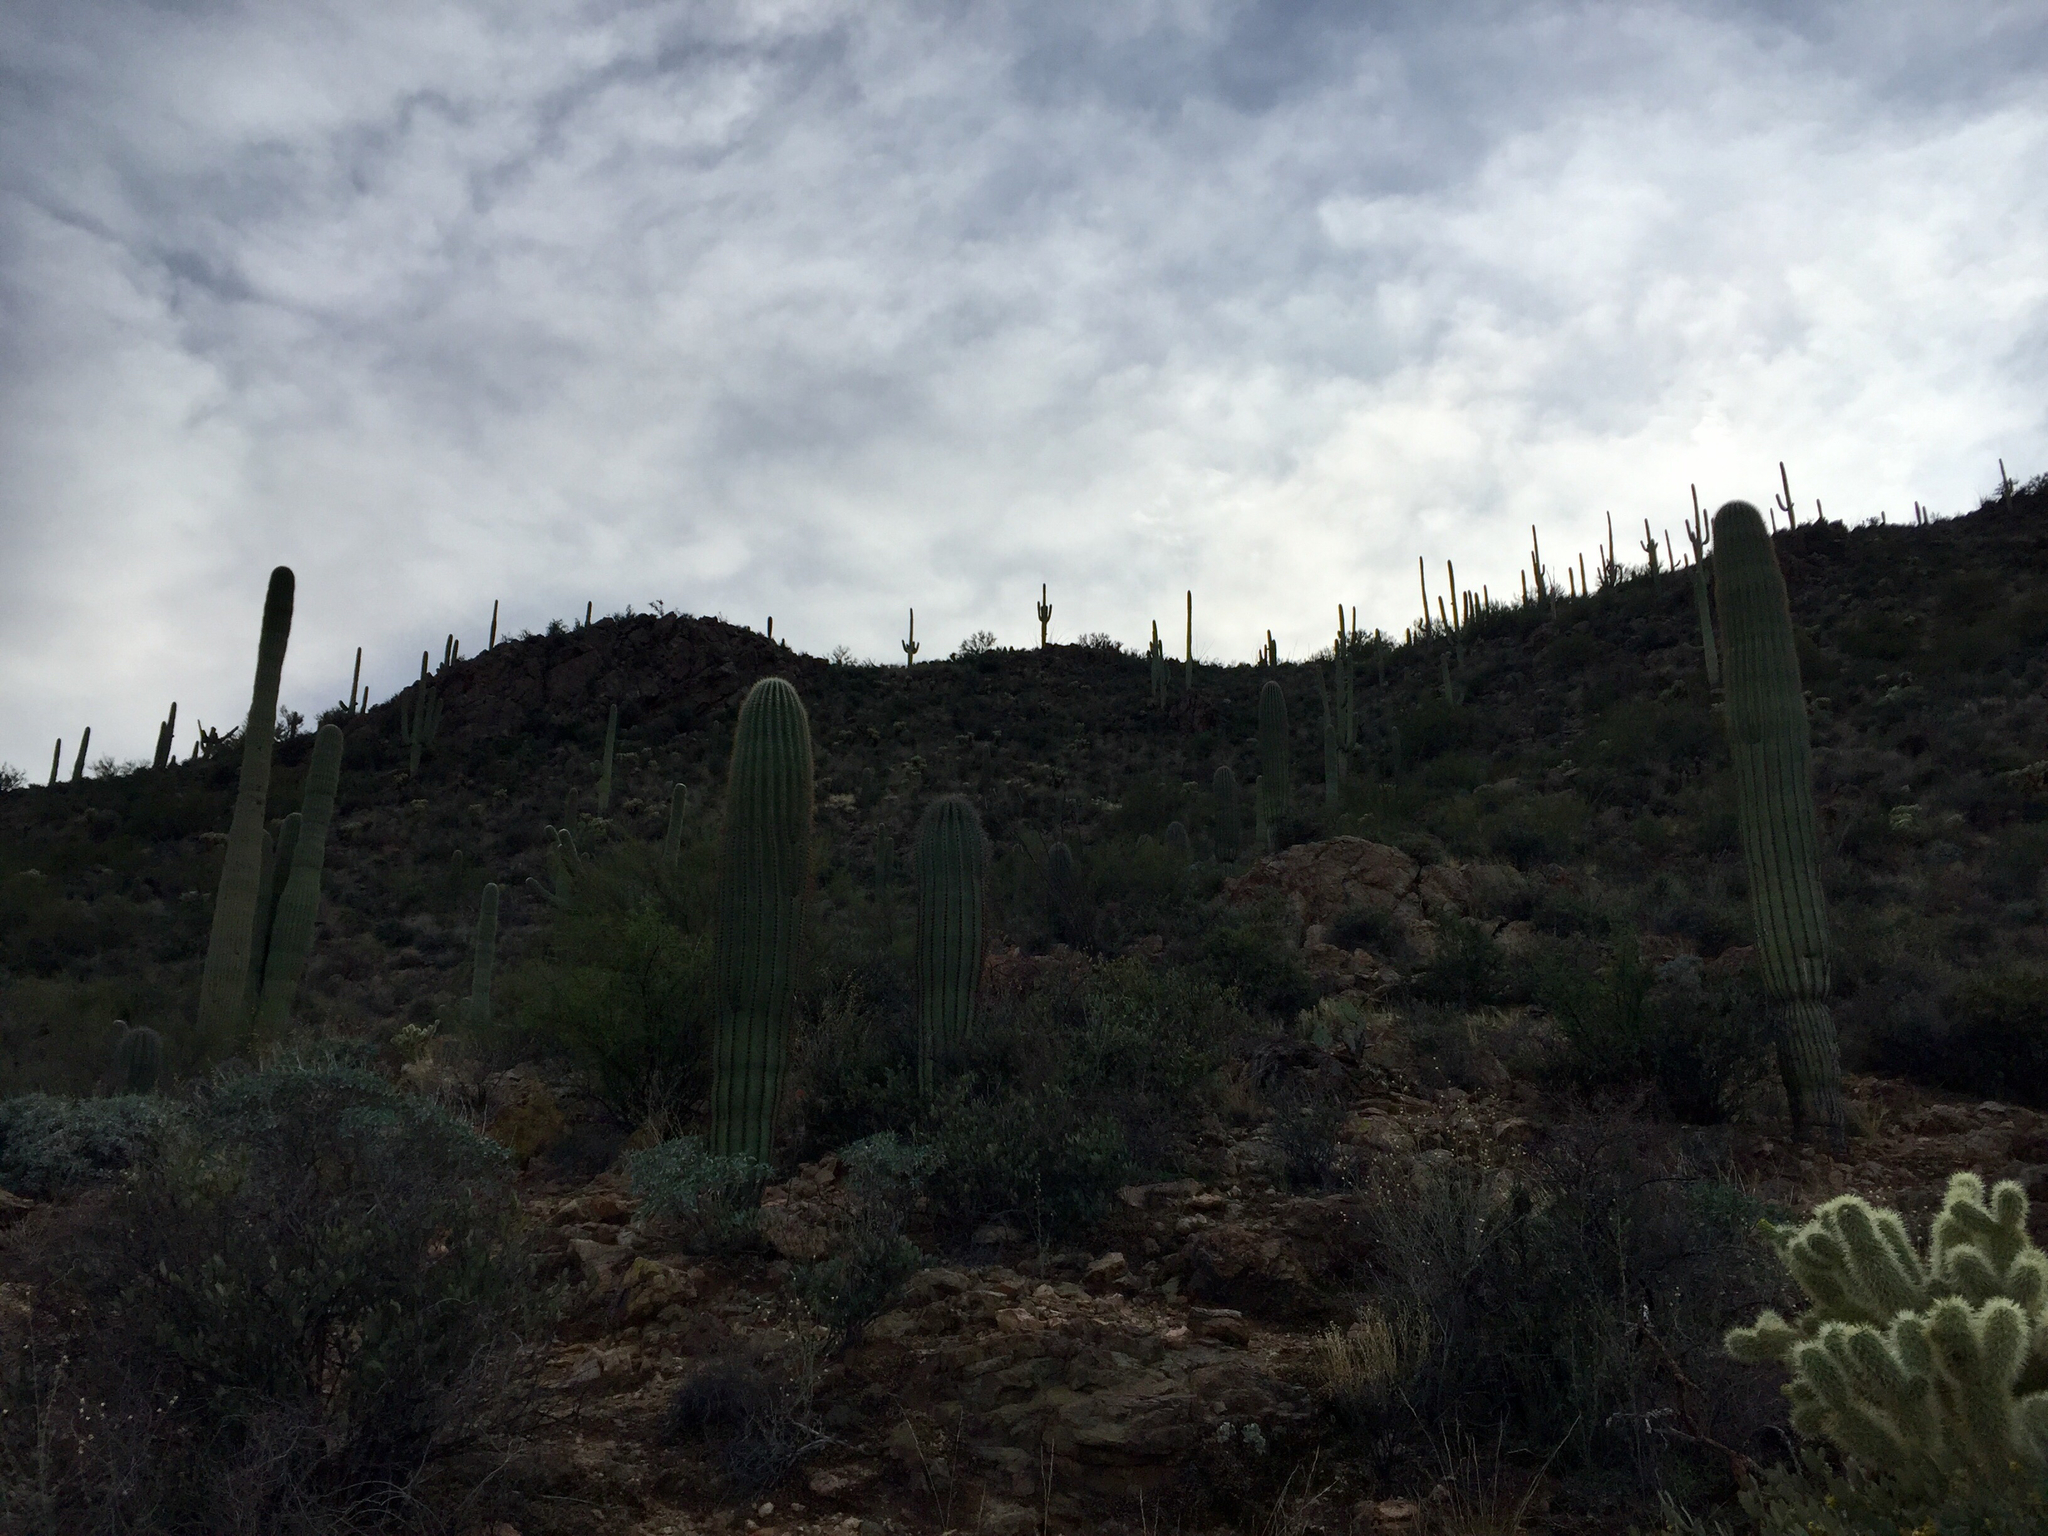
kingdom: Plantae
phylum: Tracheophyta
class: Magnoliopsida
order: Caryophyllales
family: Cactaceae
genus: Carnegiea
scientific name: Carnegiea gigantea
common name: Saguaro
